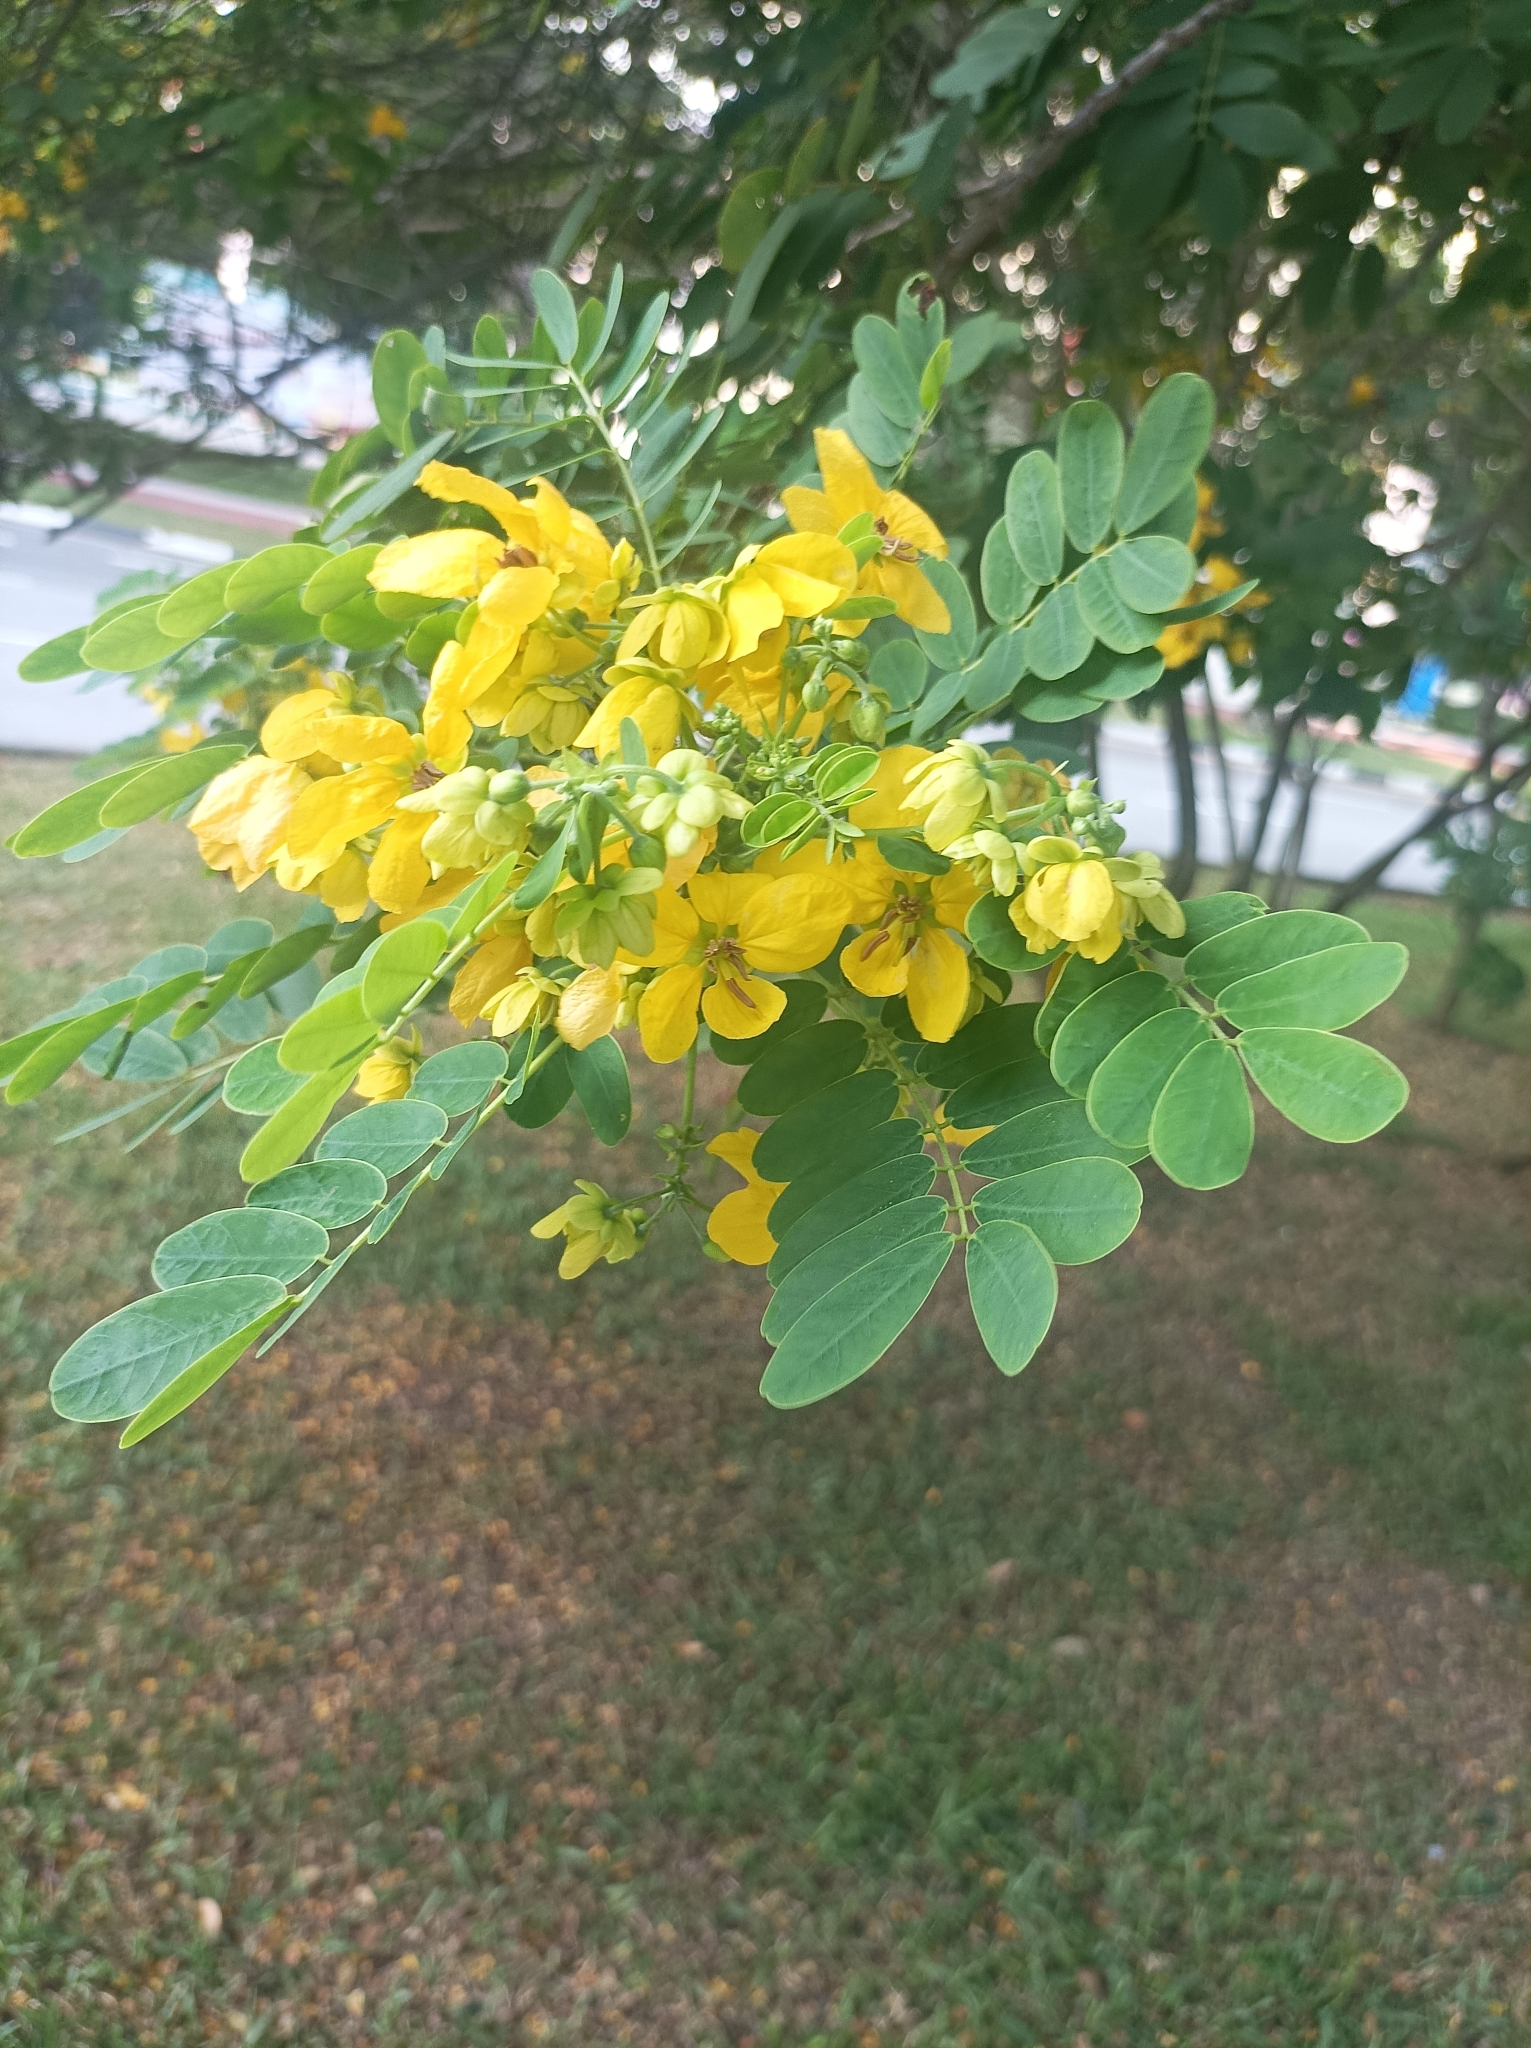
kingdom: Plantae
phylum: Tracheophyta
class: Magnoliopsida
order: Fabales
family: Fabaceae
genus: Senna
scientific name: Senna surattensis
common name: Glossy shower
